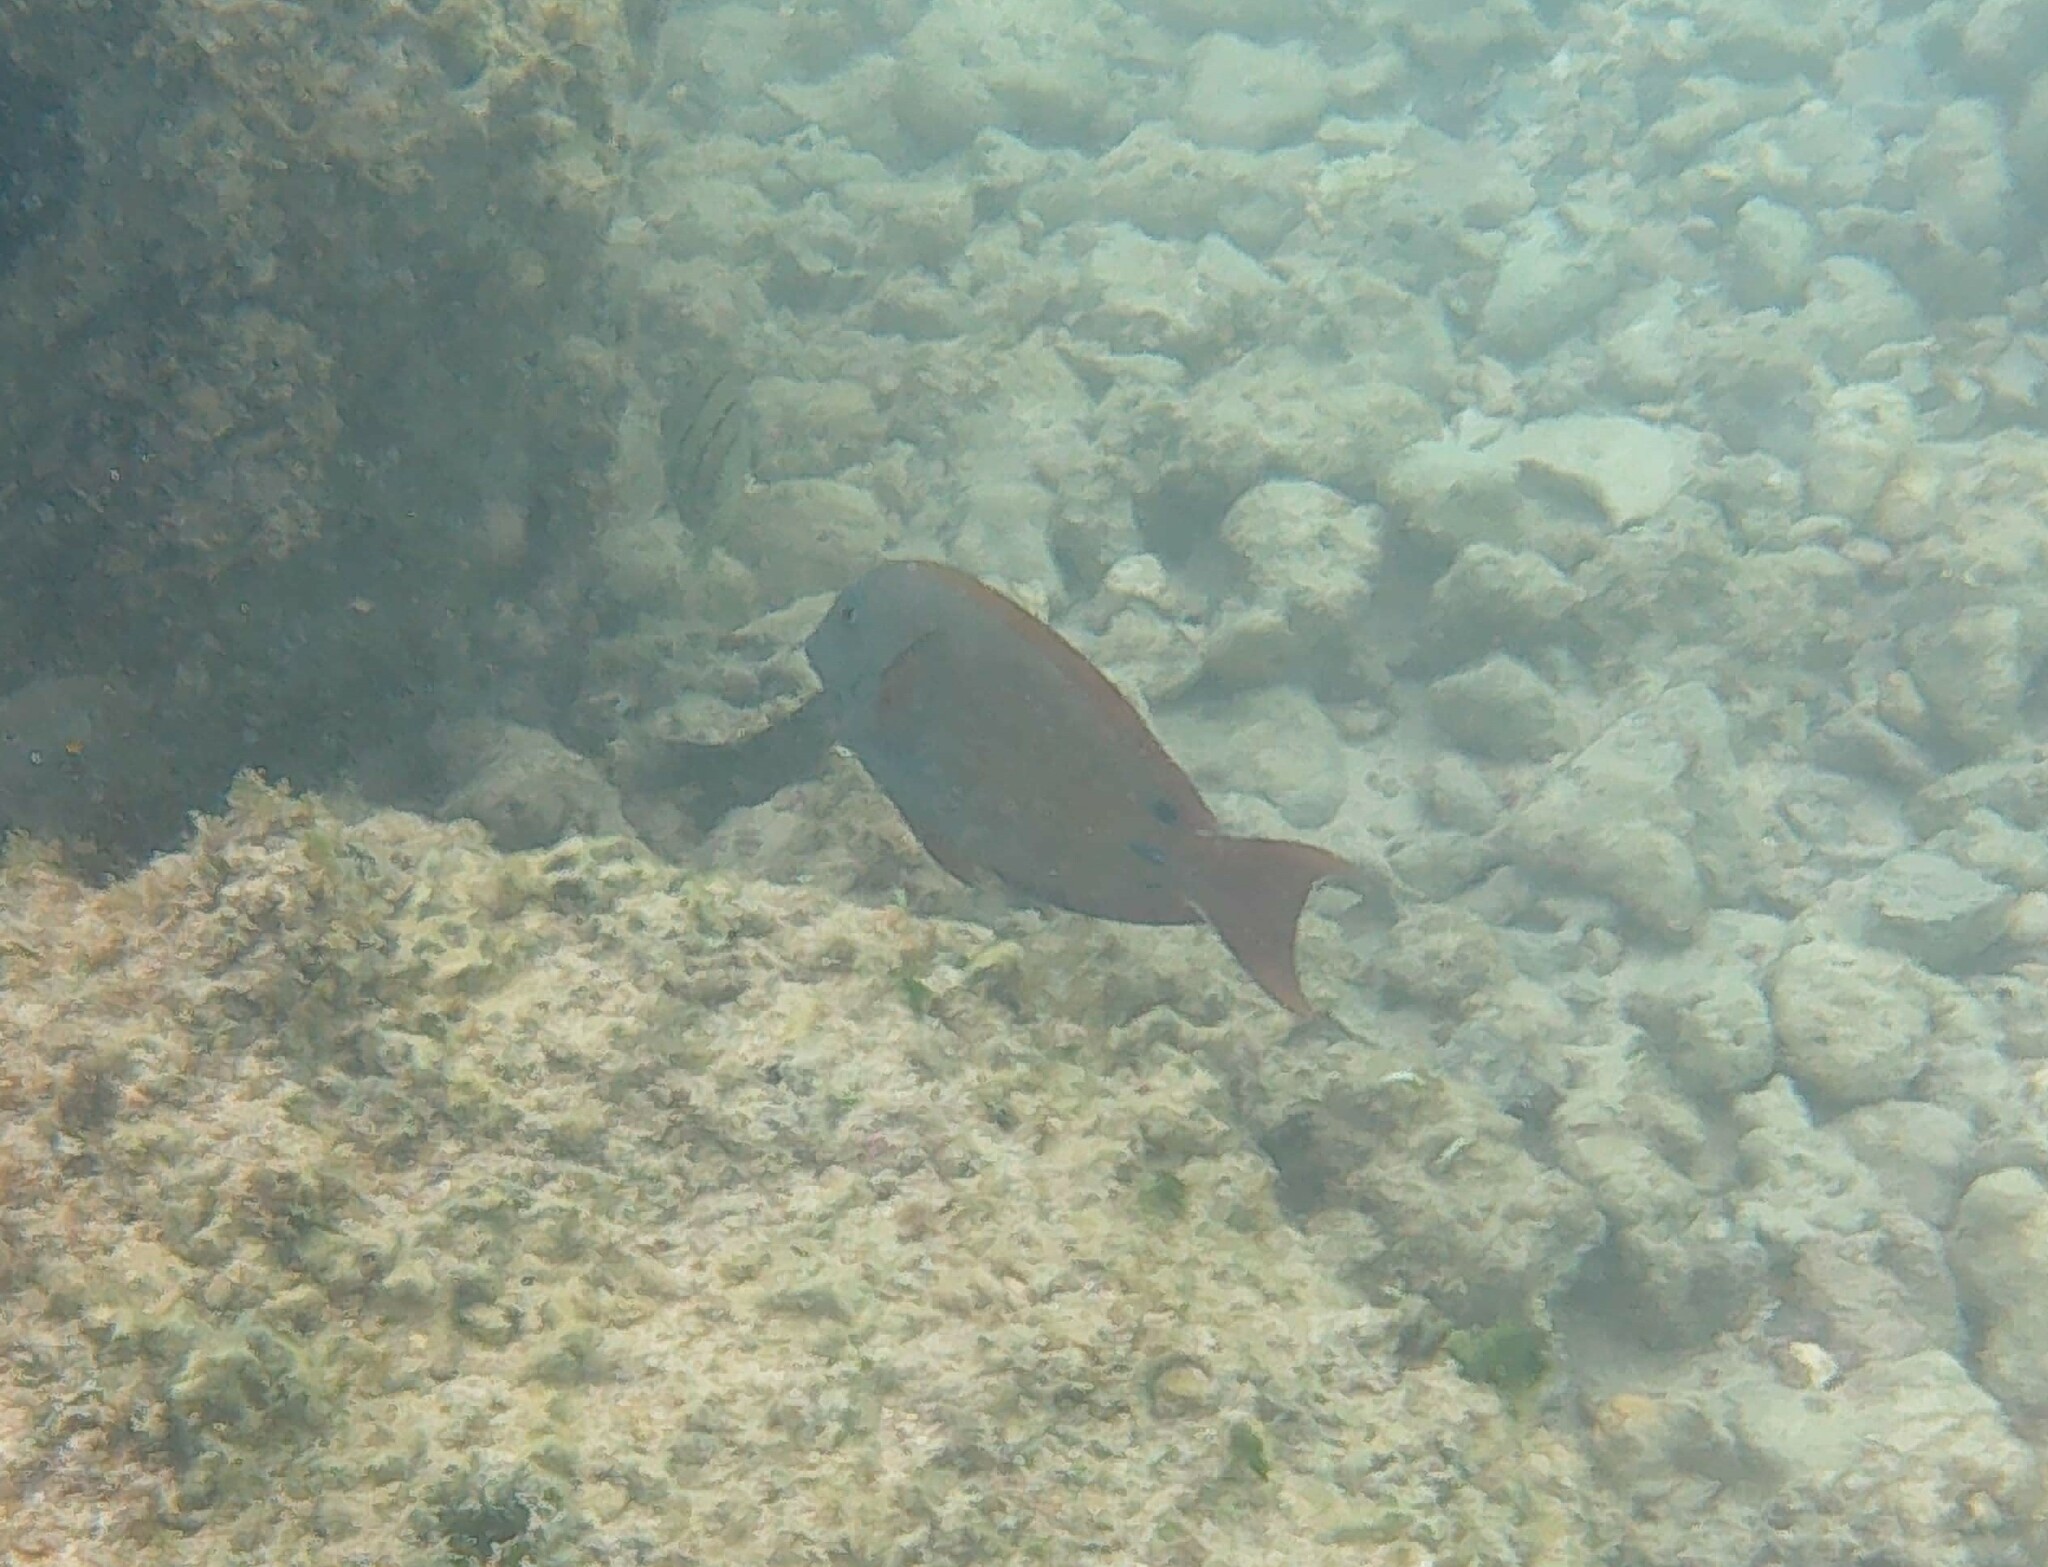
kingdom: Animalia
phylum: Chordata
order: Perciformes
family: Acanthuridae
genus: Acanthurus
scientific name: Acanthurus nigrofuscus
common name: Blackspot surgeonfish
